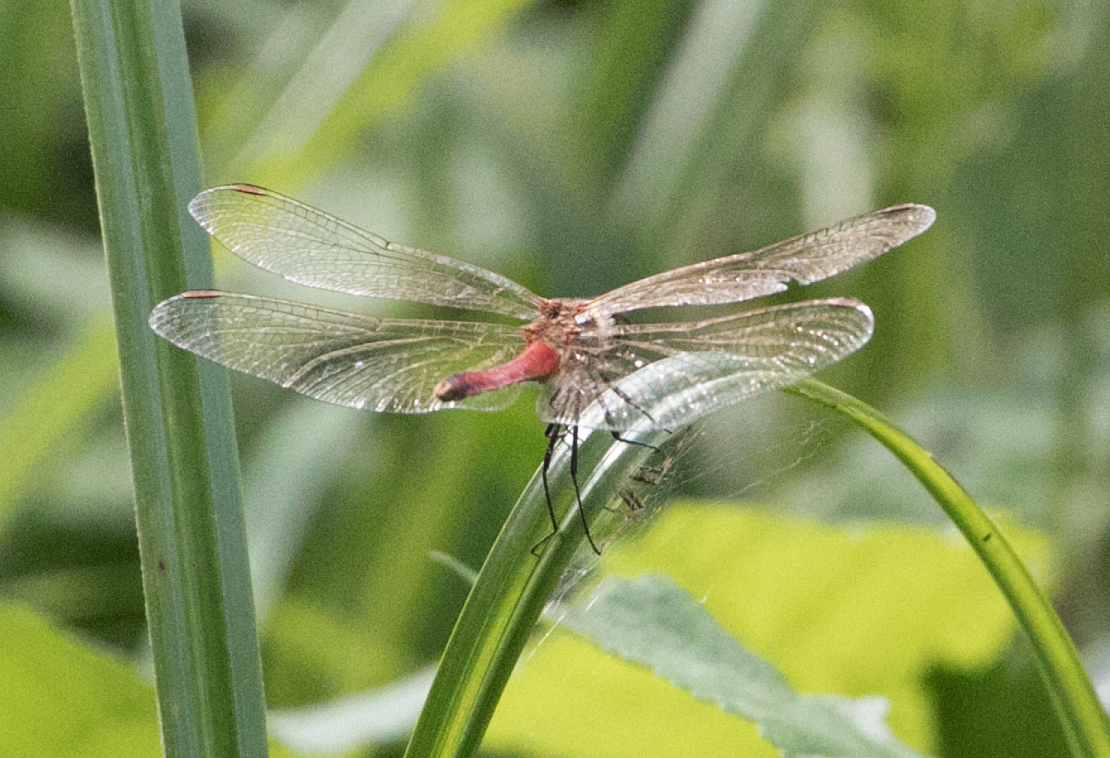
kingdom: Animalia
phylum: Arthropoda
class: Insecta
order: Odonata
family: Libellulidae
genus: Sympetrum
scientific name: Sympetrum sanguineum
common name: Ruddy darter
